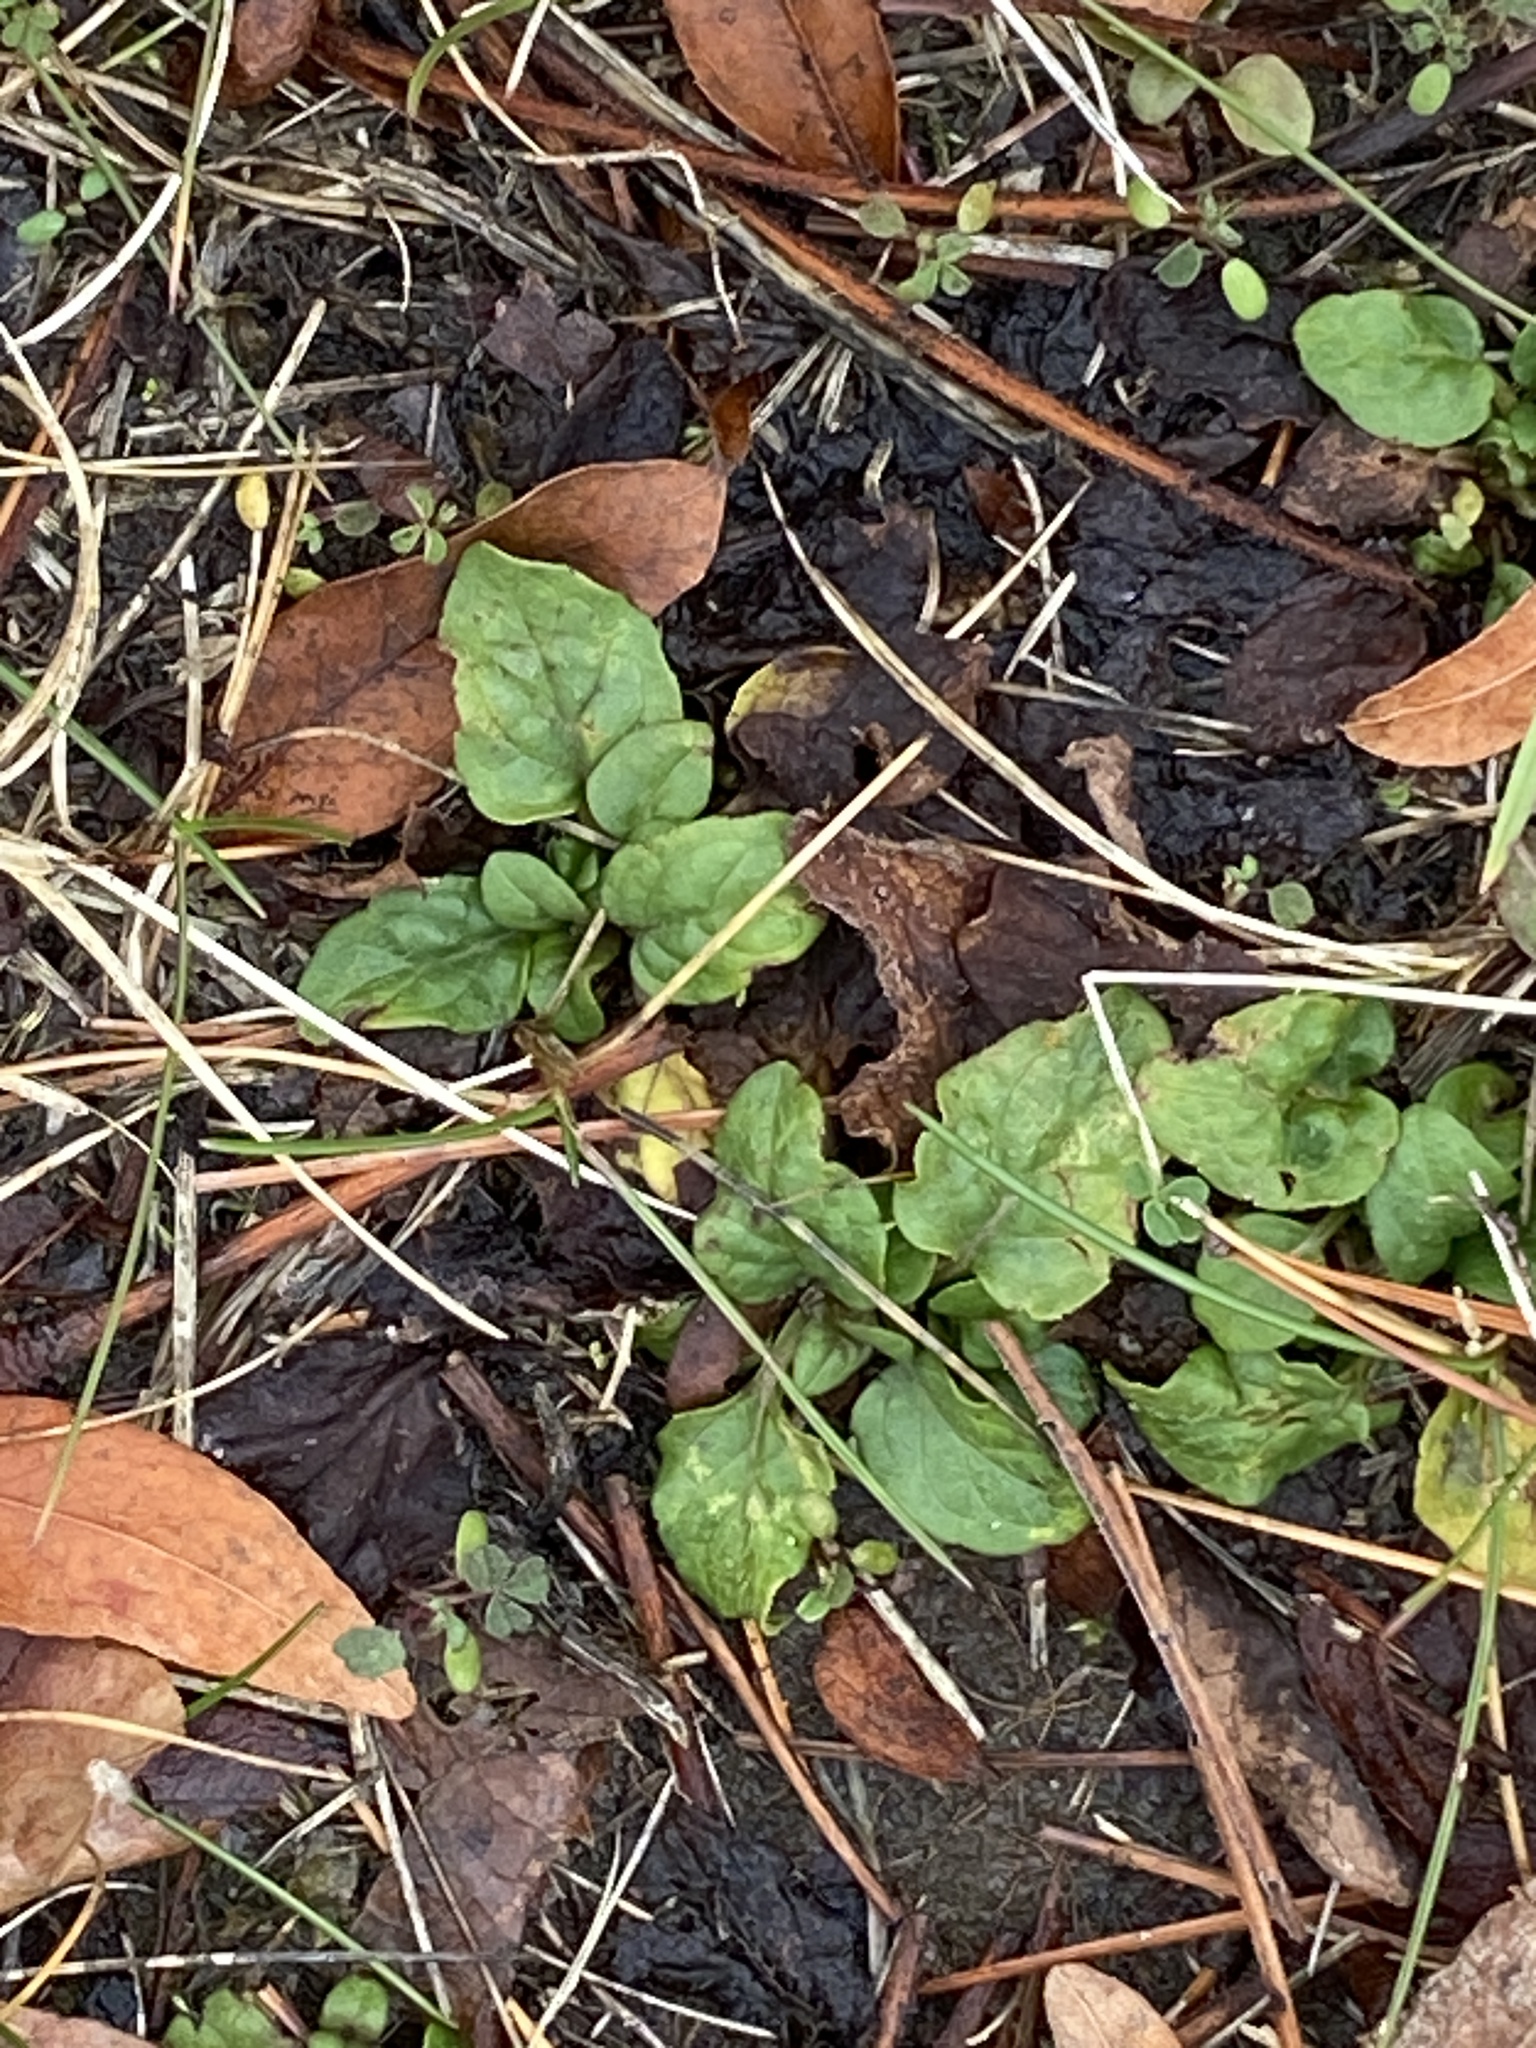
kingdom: Plantae
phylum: Tracheophyta
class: Magnoliopsida
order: Lamiales
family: Lamiaceae
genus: Prunella
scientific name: Prunella vulgaris
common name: Heal-all
